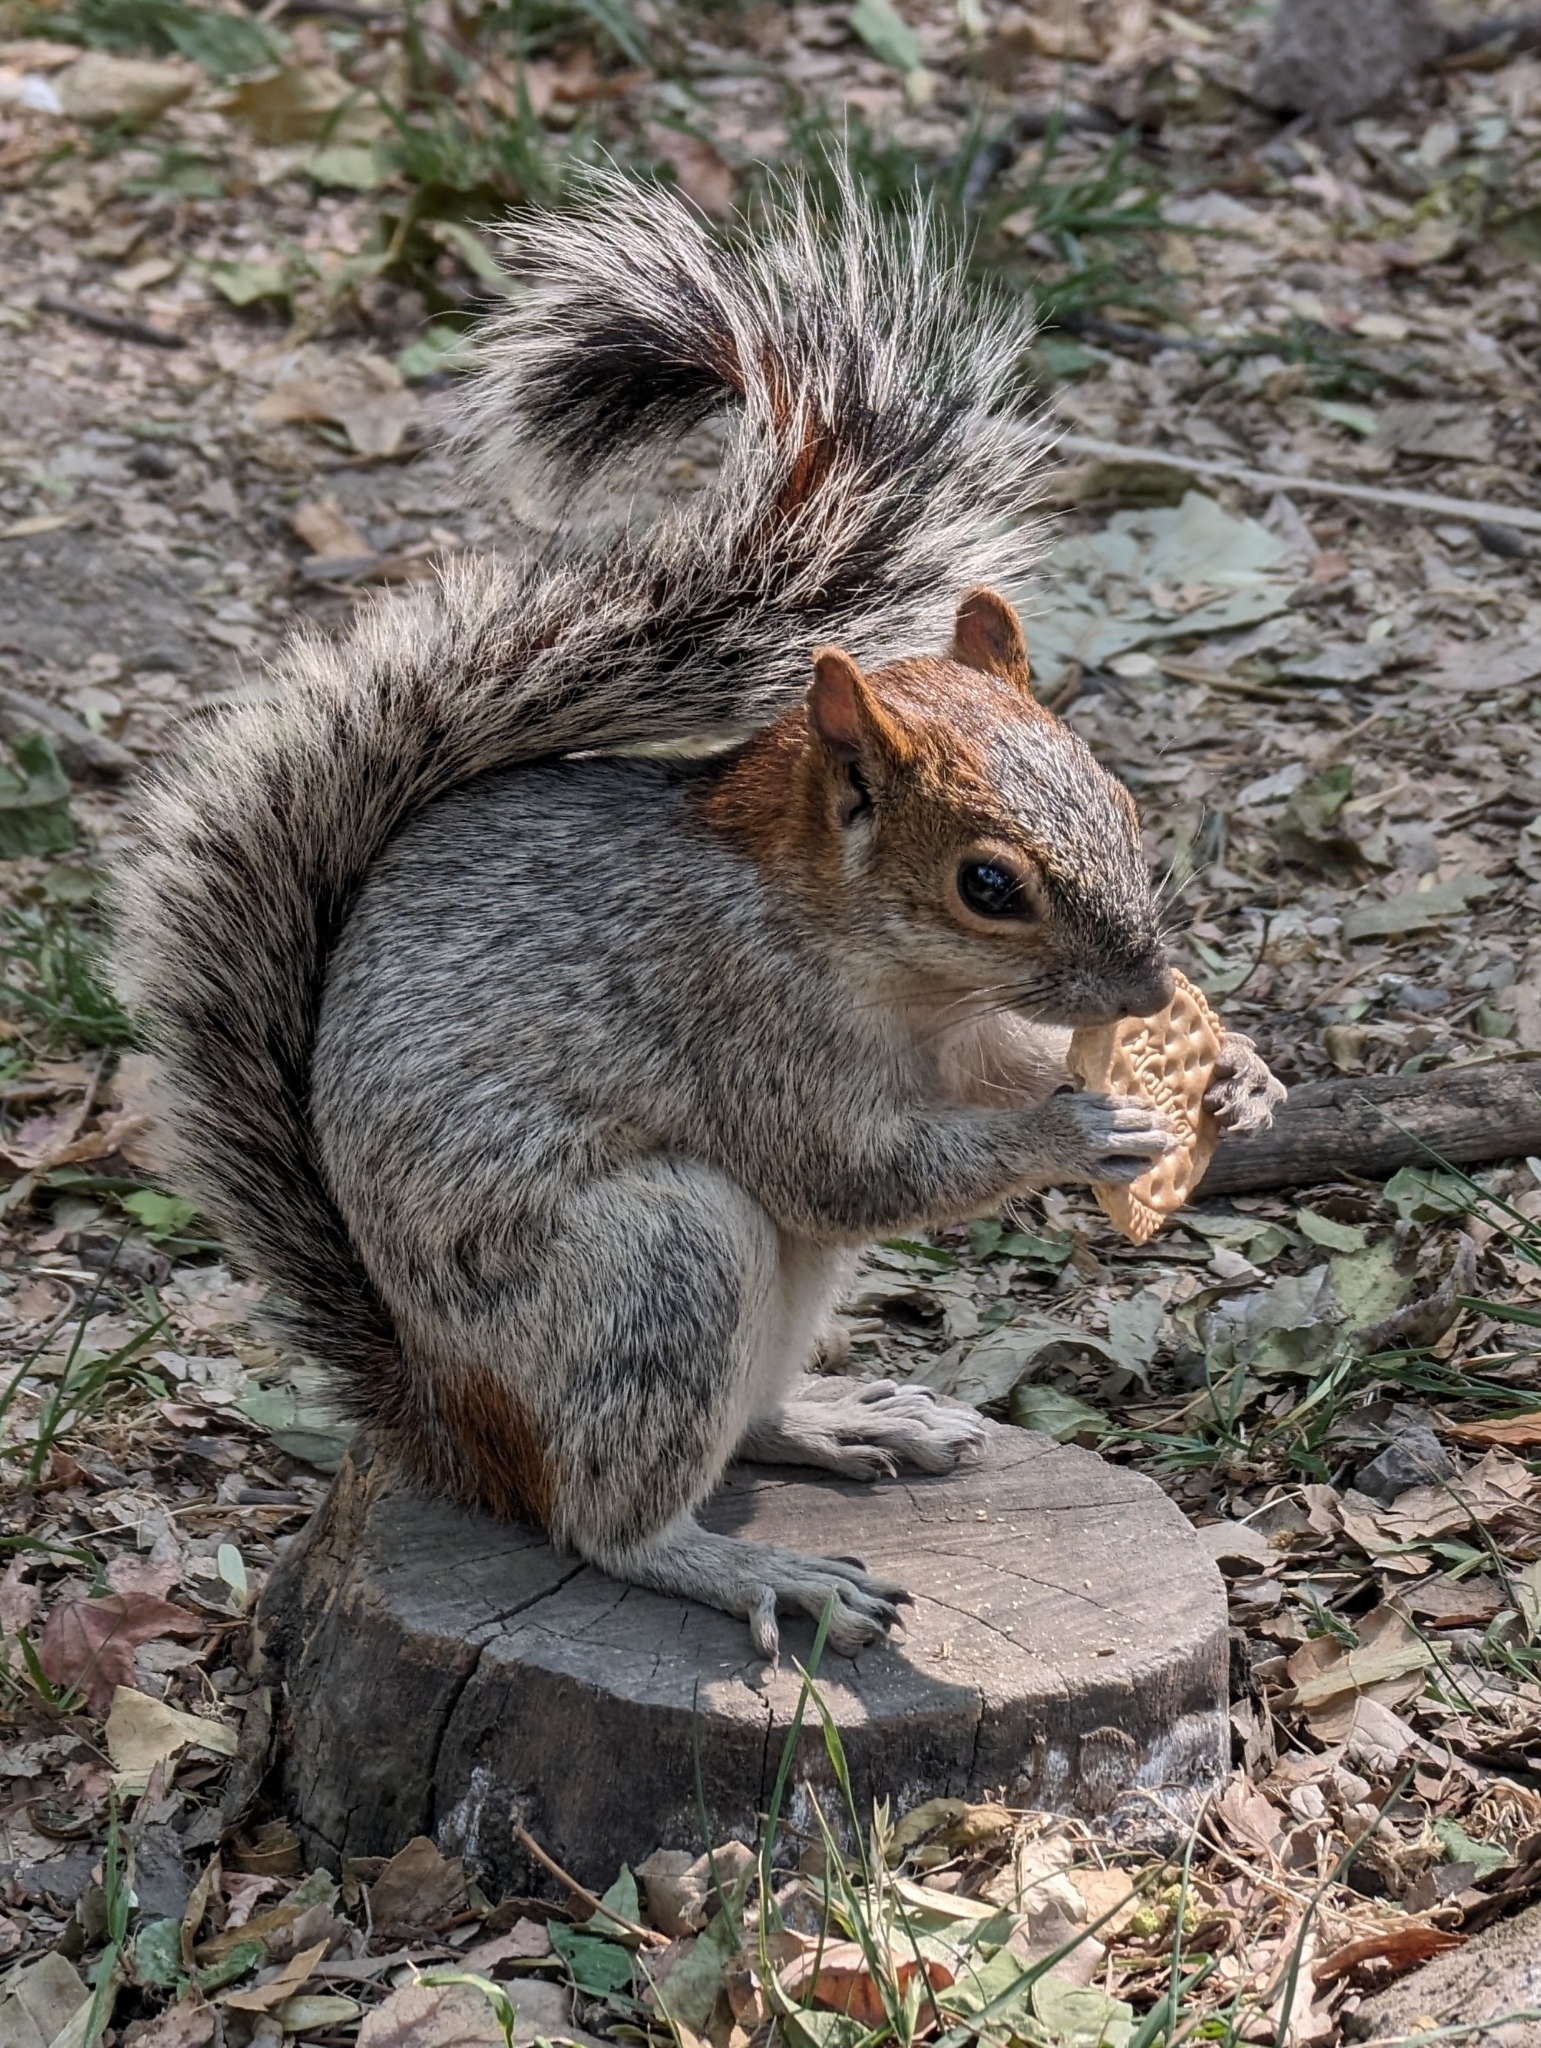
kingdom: Animalia
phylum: Chordata
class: Mammalia
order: Rodentia
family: Sciuridae
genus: Sciurus
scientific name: Sciurus aureogaster
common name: Red-bellied squirrel
